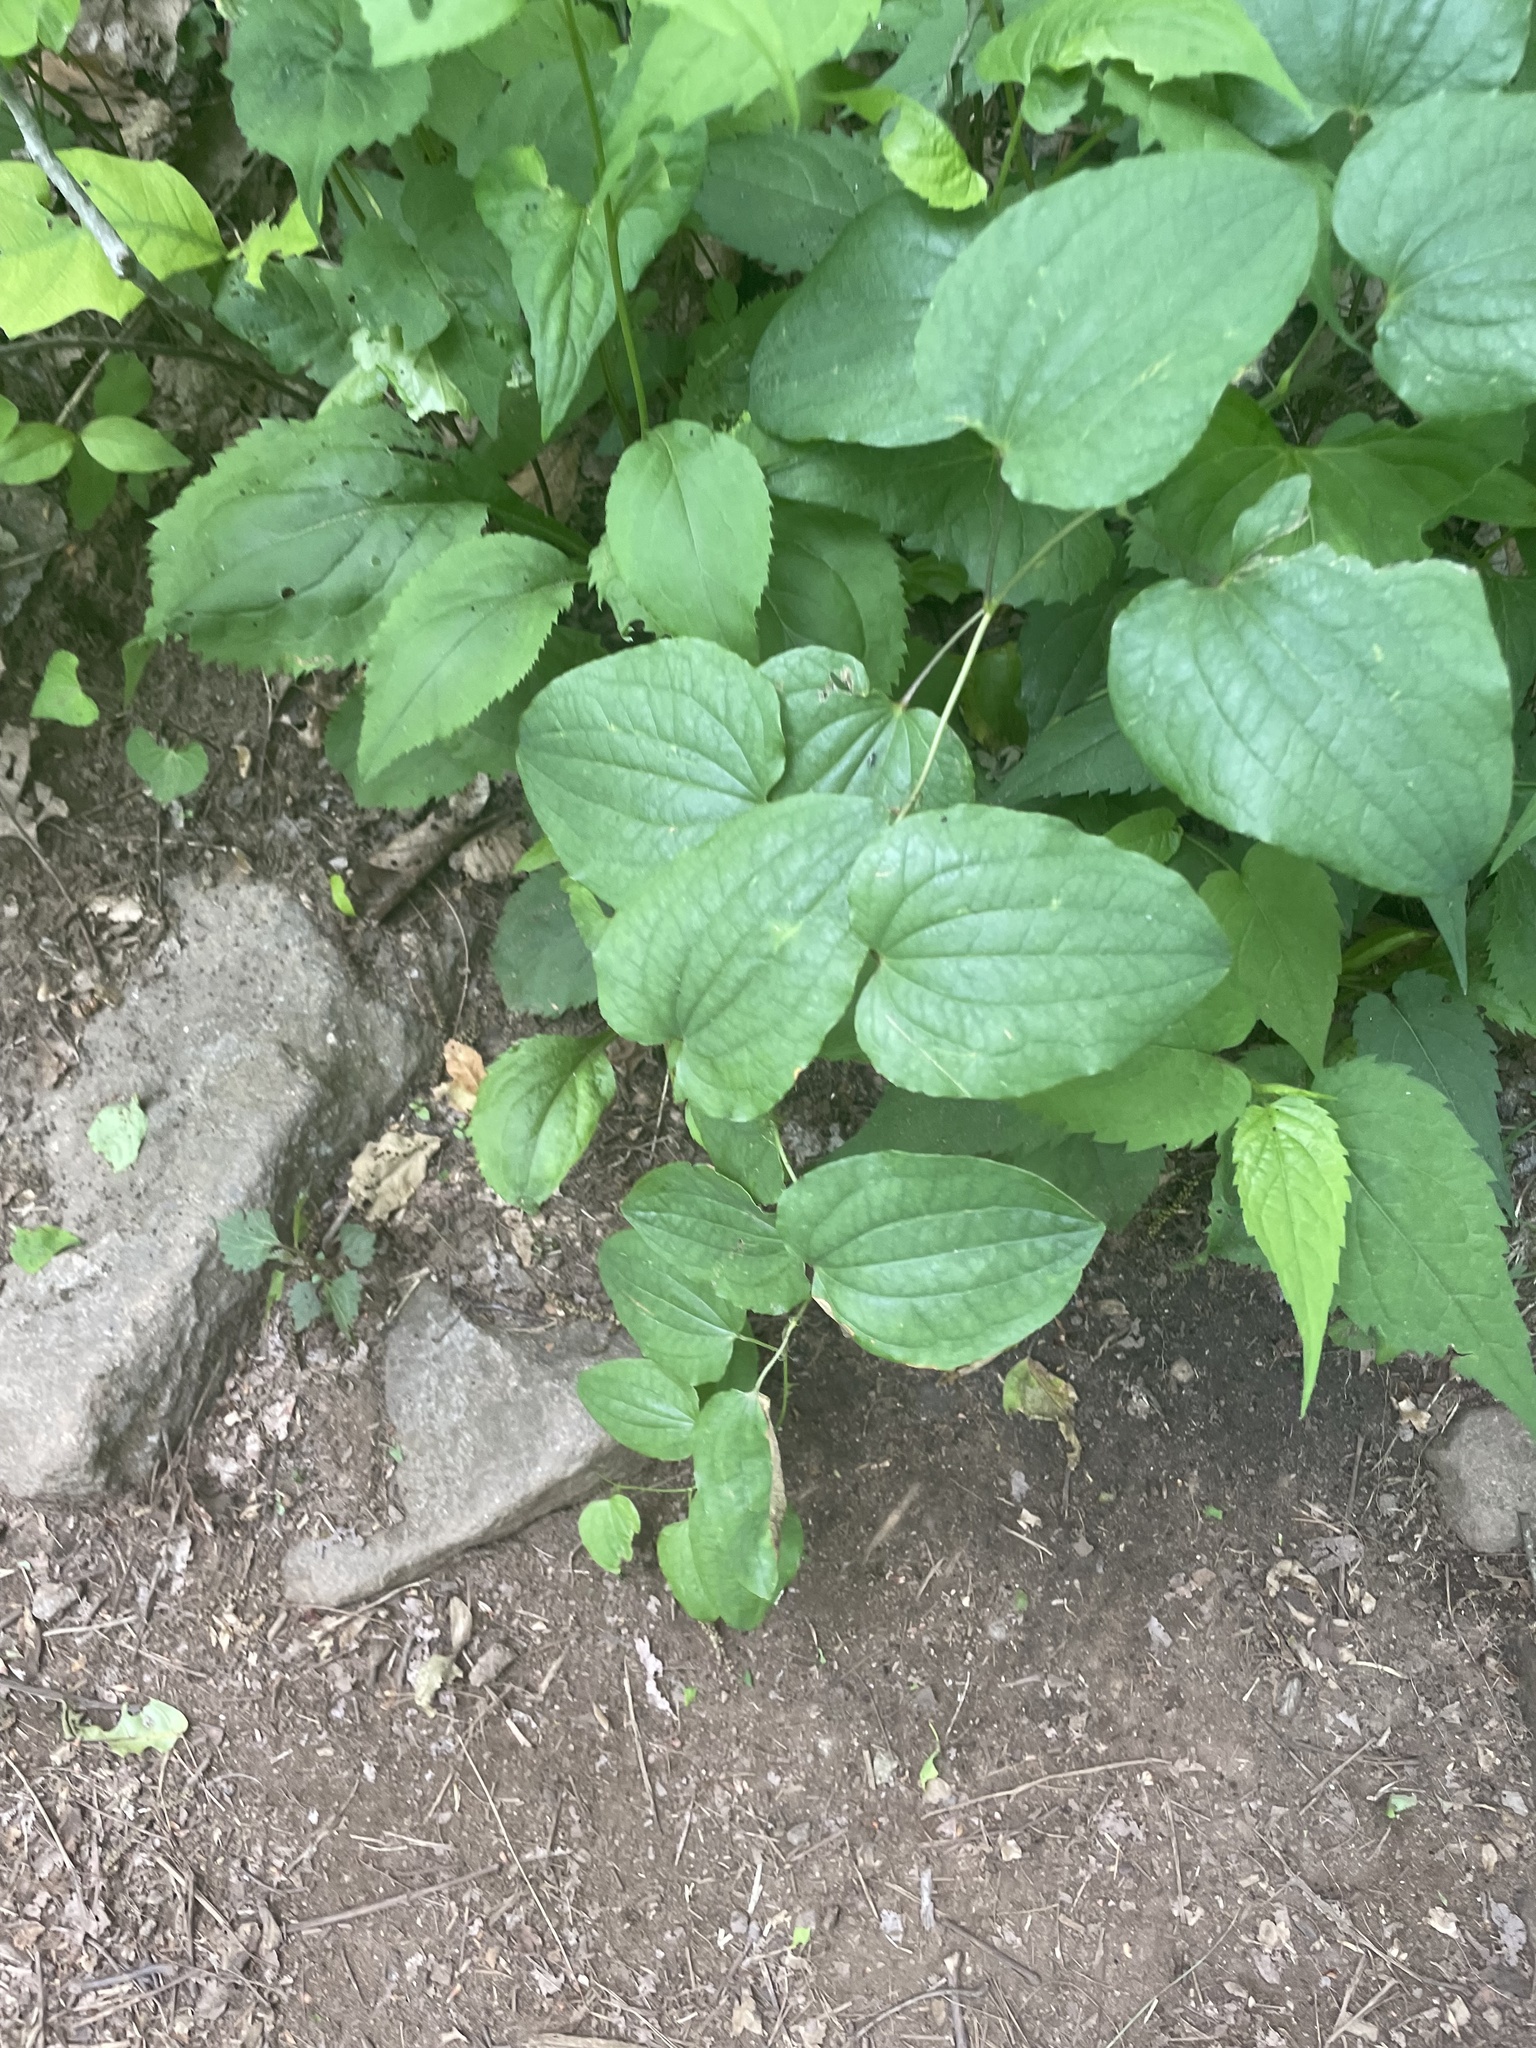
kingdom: Plantae
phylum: Tracheophyta
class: Liliopsida
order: Liliales
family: Smilacaceae
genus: Smilax
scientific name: Smilax herbacea
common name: Jacob's-ladder
